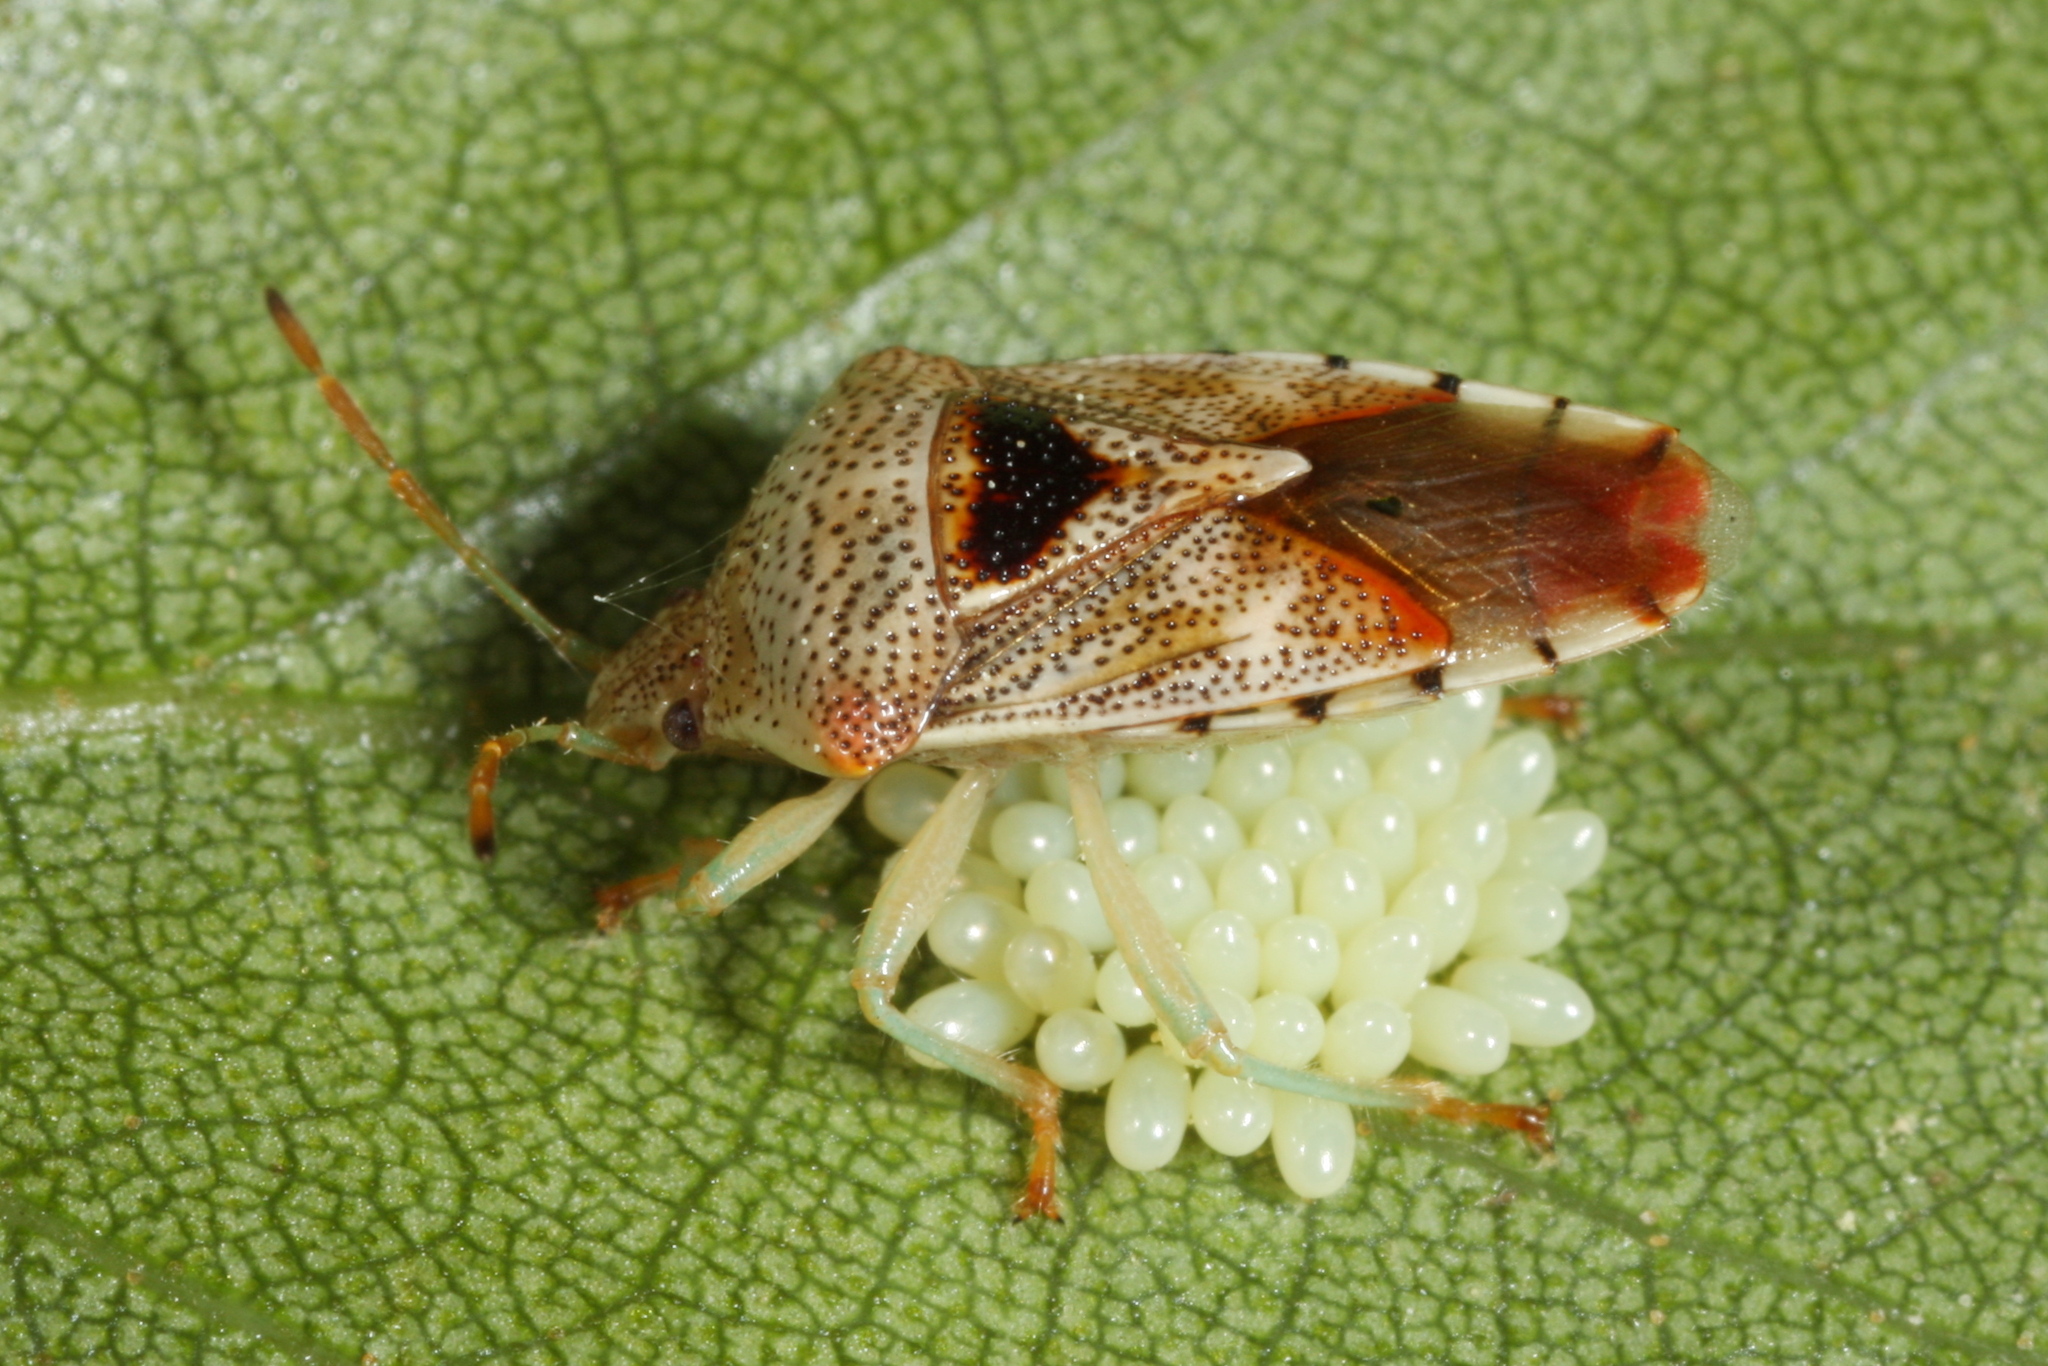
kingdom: Animalia
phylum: Arthropoda
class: Insecta
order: Hemiptera
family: Acanthosomatidae
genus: Elasmucha
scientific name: Elasmucha grisea
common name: Parent bug
